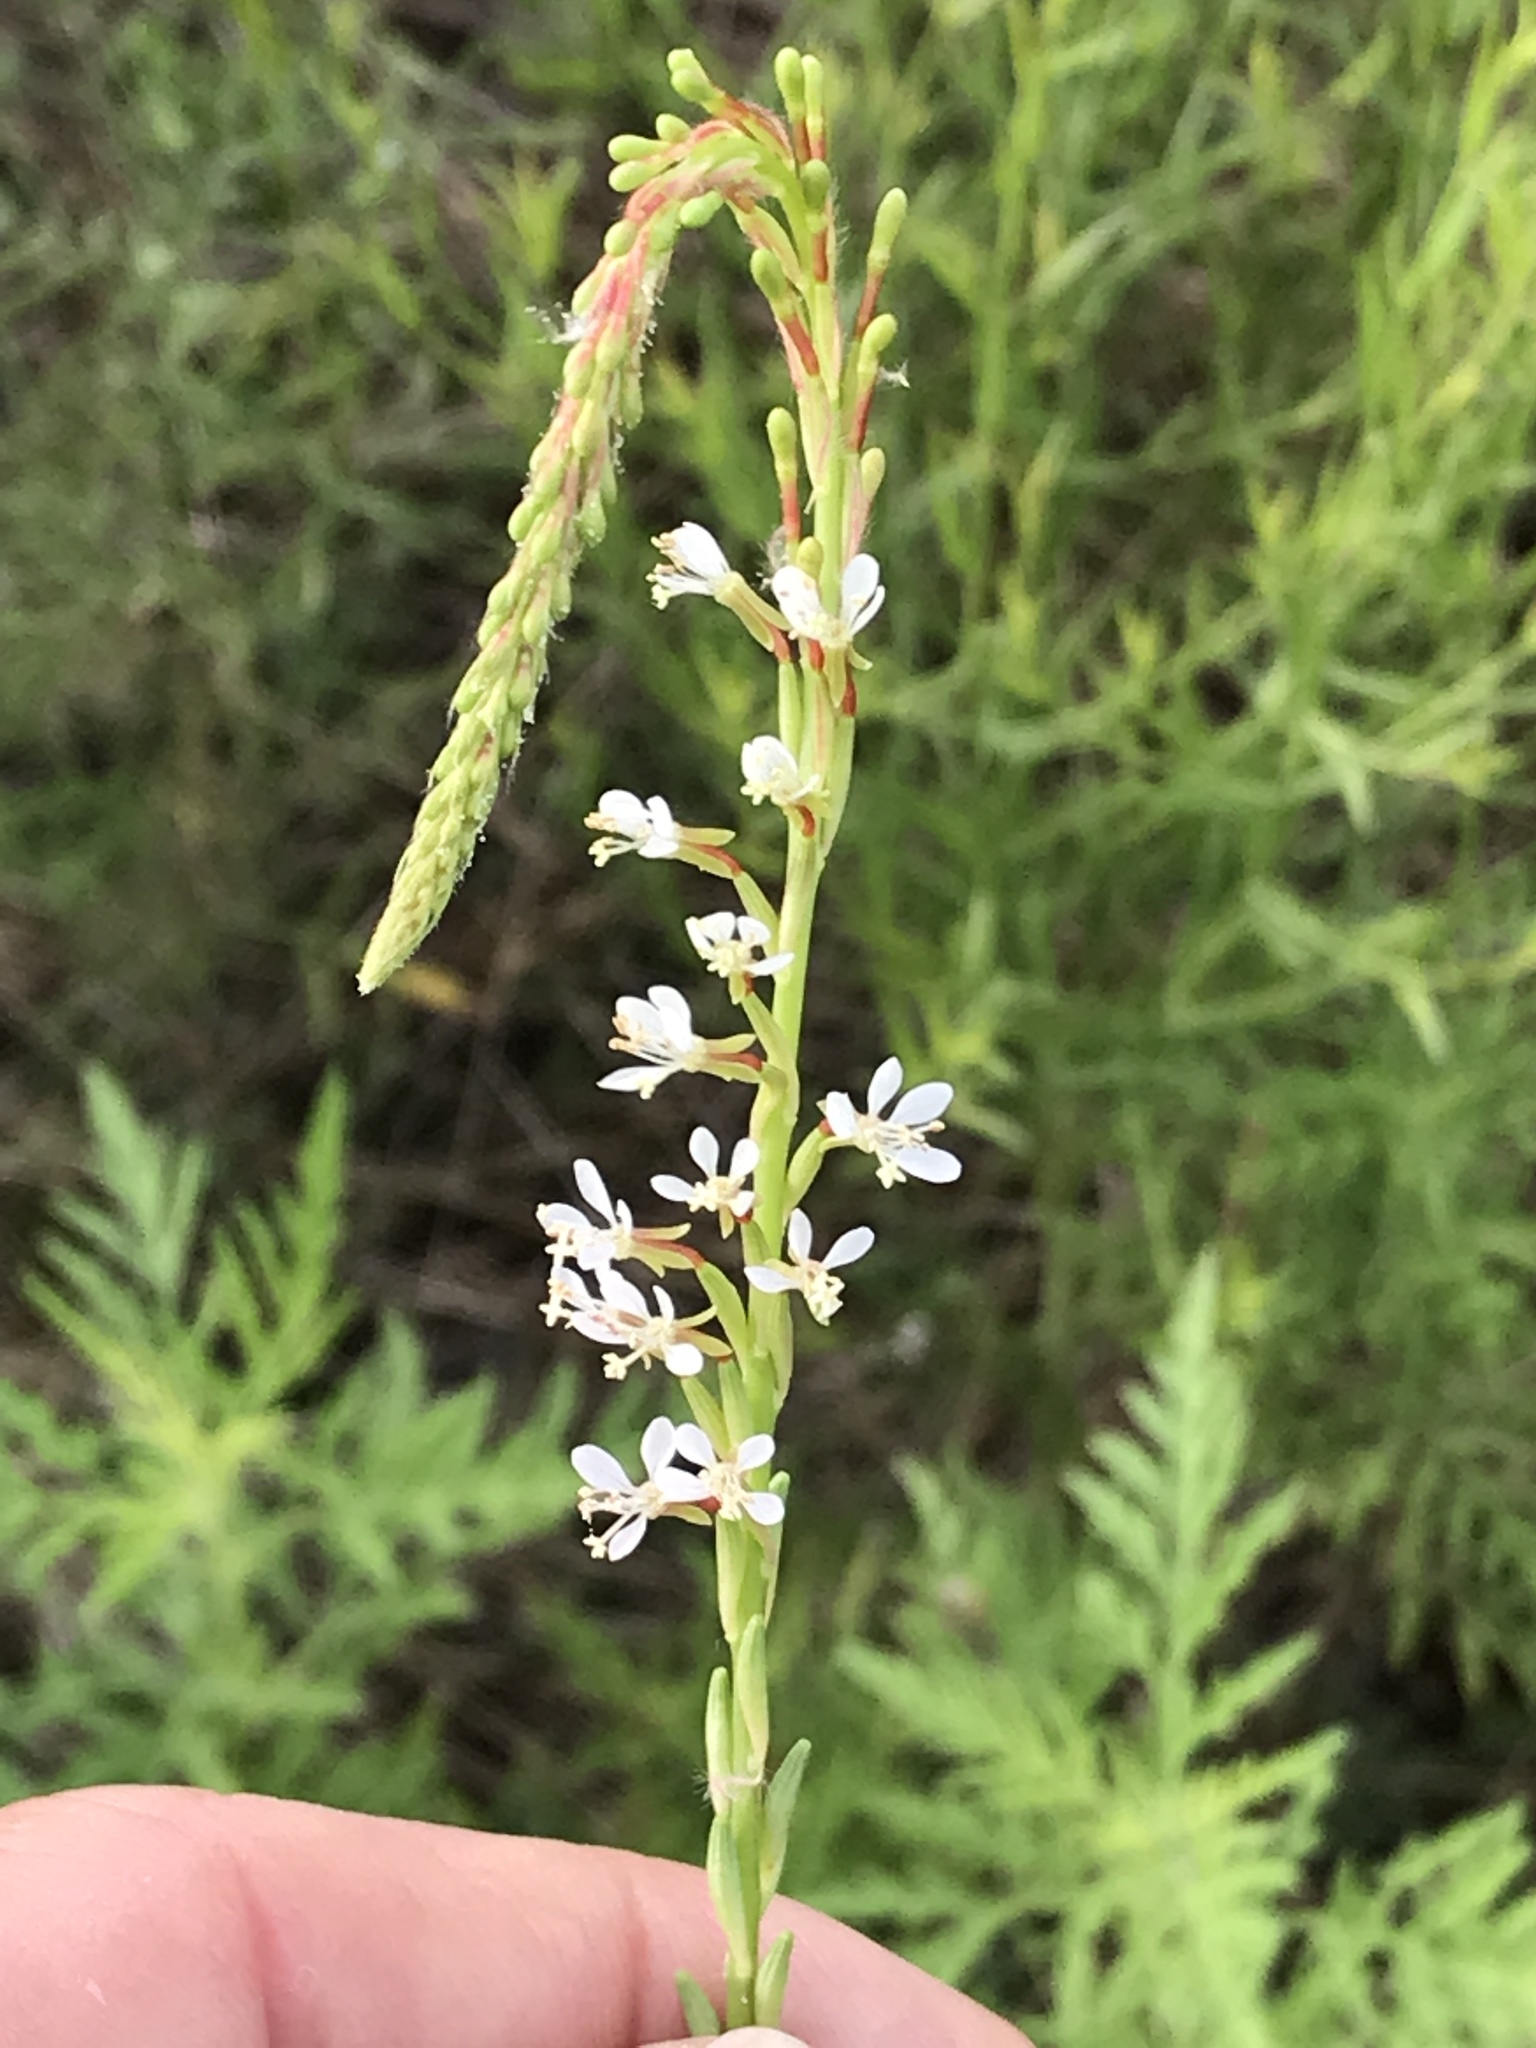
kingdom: Plantae
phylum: Tracheophyta
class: Magnoliopsida
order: Myrtales
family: Onagraceae
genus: Oenothera
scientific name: Oenothera curtiflora
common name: Velvetweed
